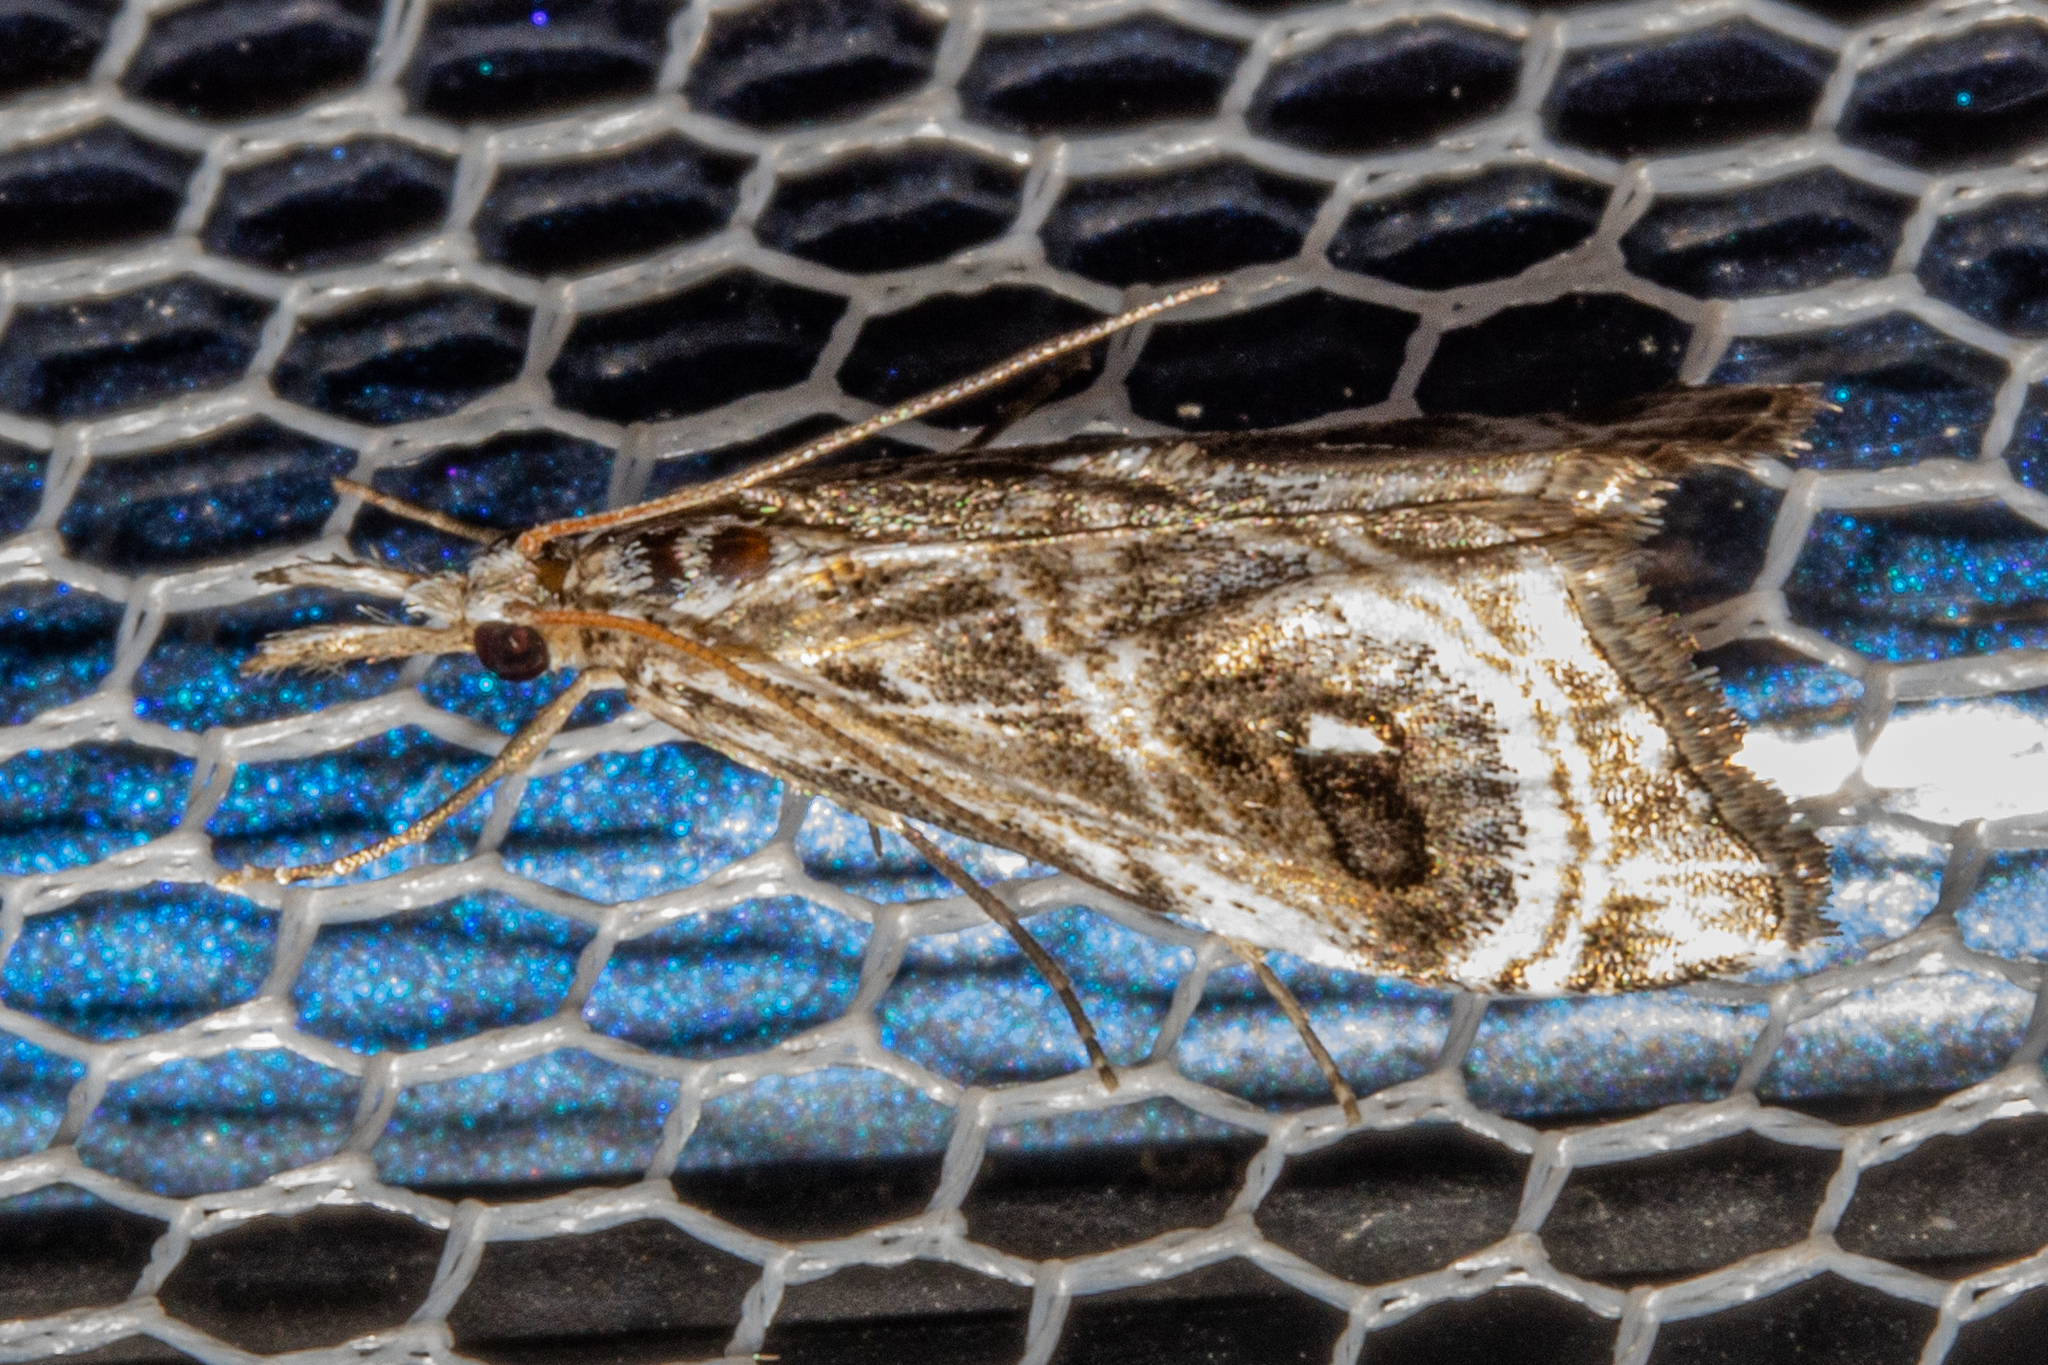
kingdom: Animalia
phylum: Arthropoda
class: Insecta
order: Lepidoptera
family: Crambidae
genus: Gadira
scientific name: Gadira acerella
